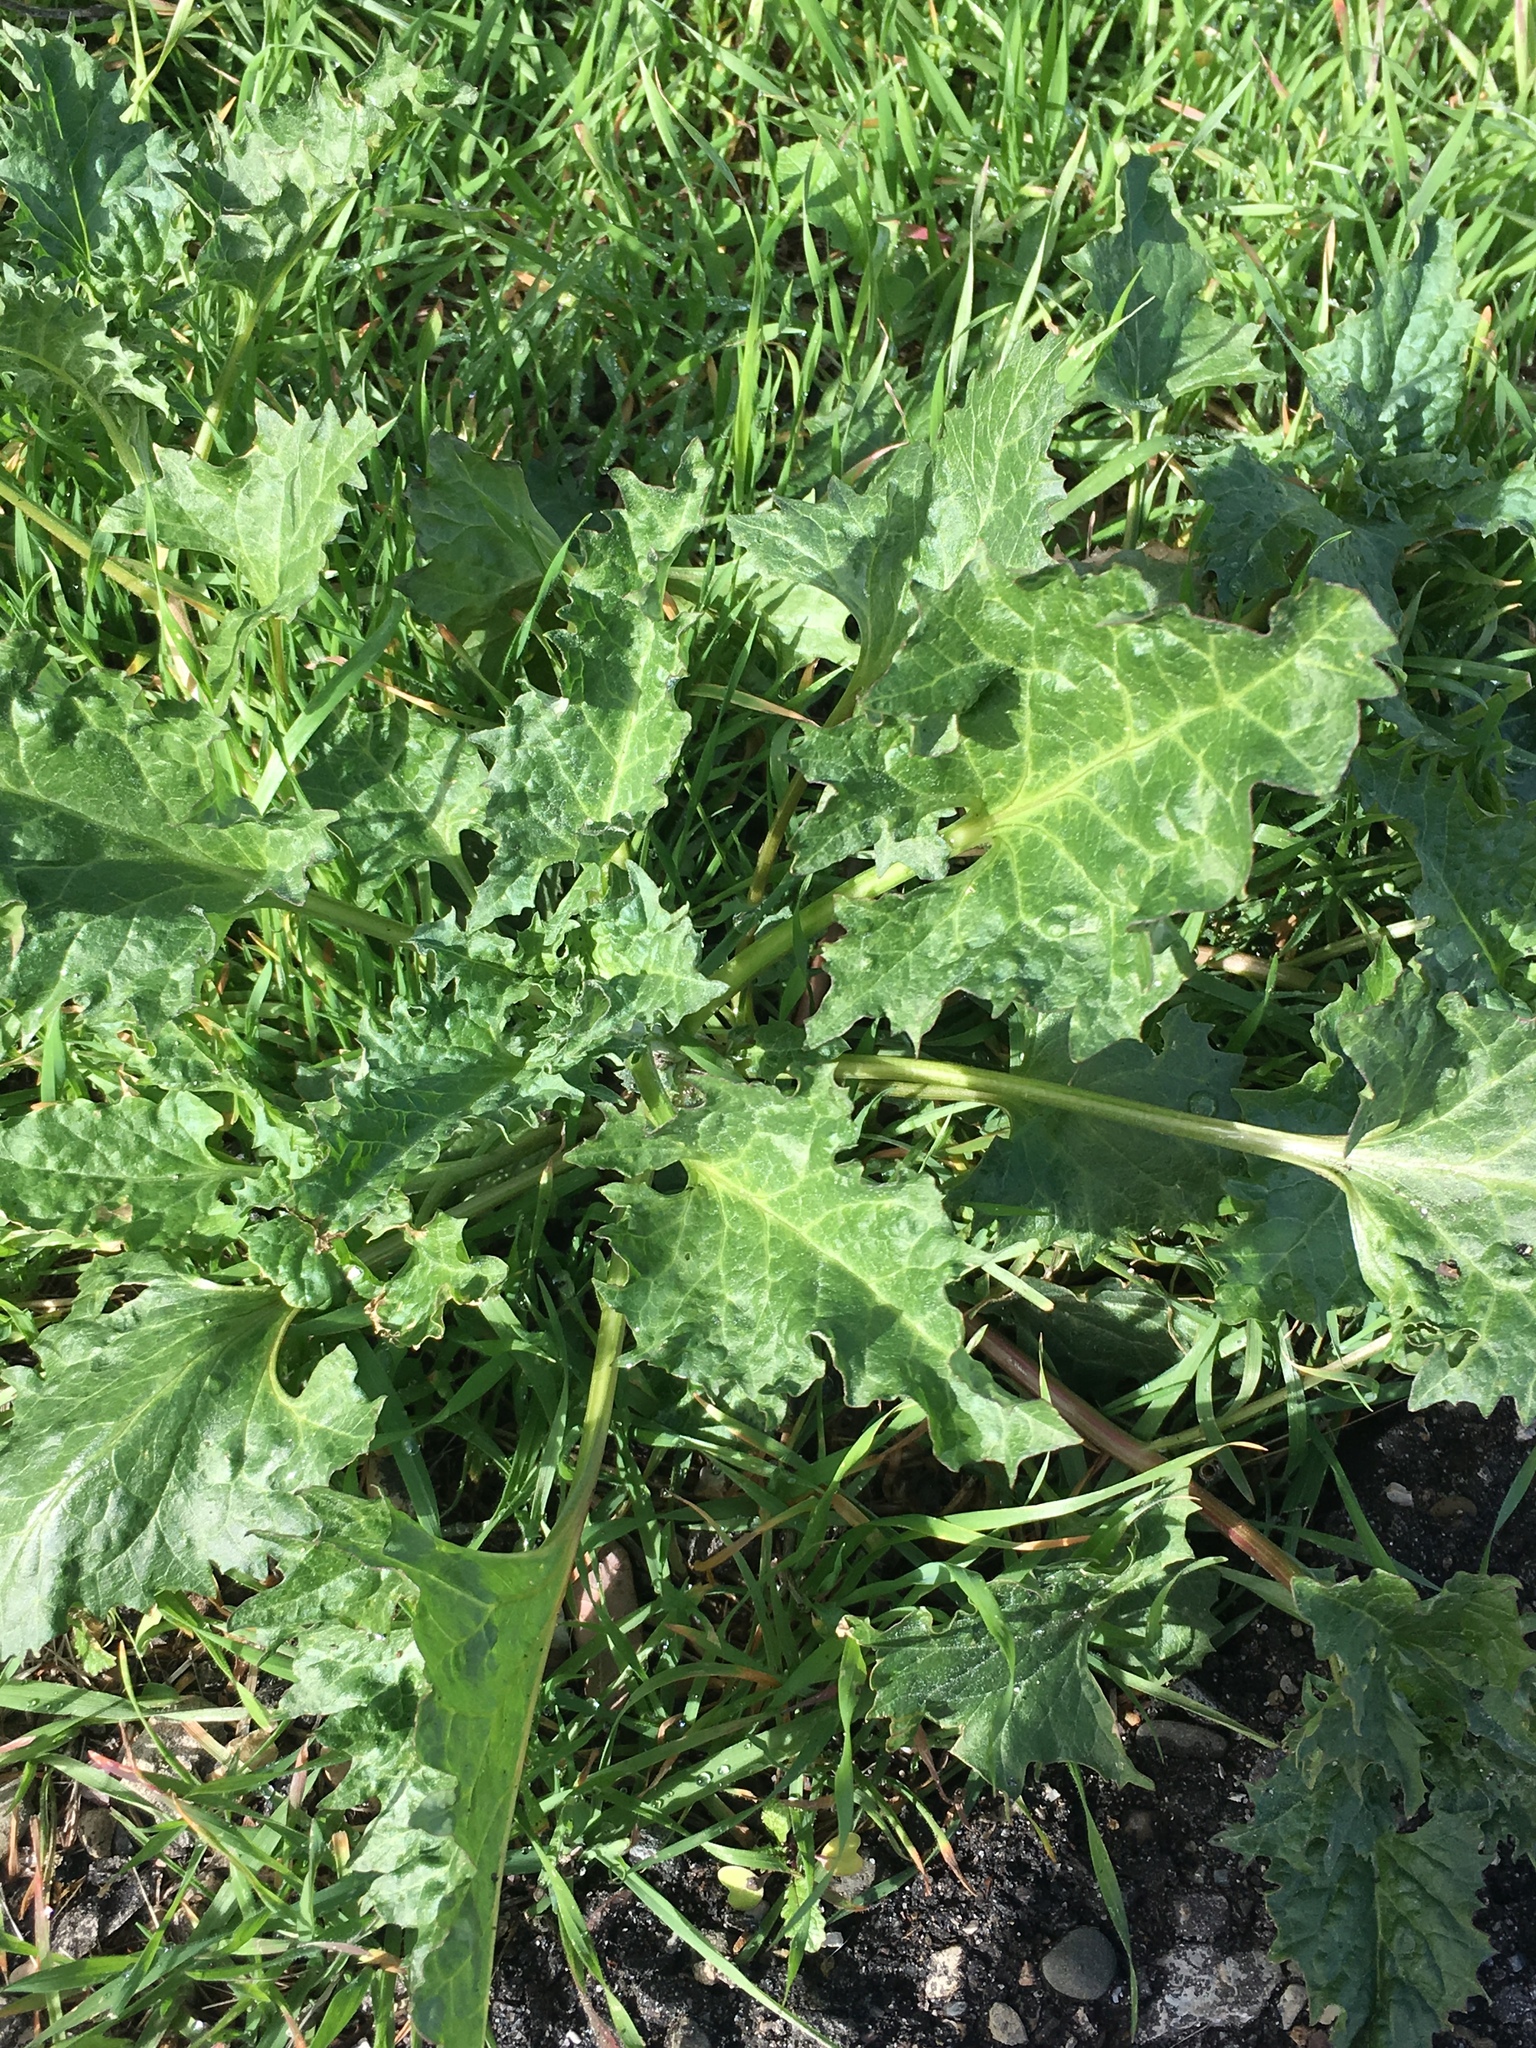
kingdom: Plantae
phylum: Tracheophyta
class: Magnoliopsida
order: Caryophyllales
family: Amaranthaceae
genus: Blitum
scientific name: Blitum californicum
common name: California goosefoot
